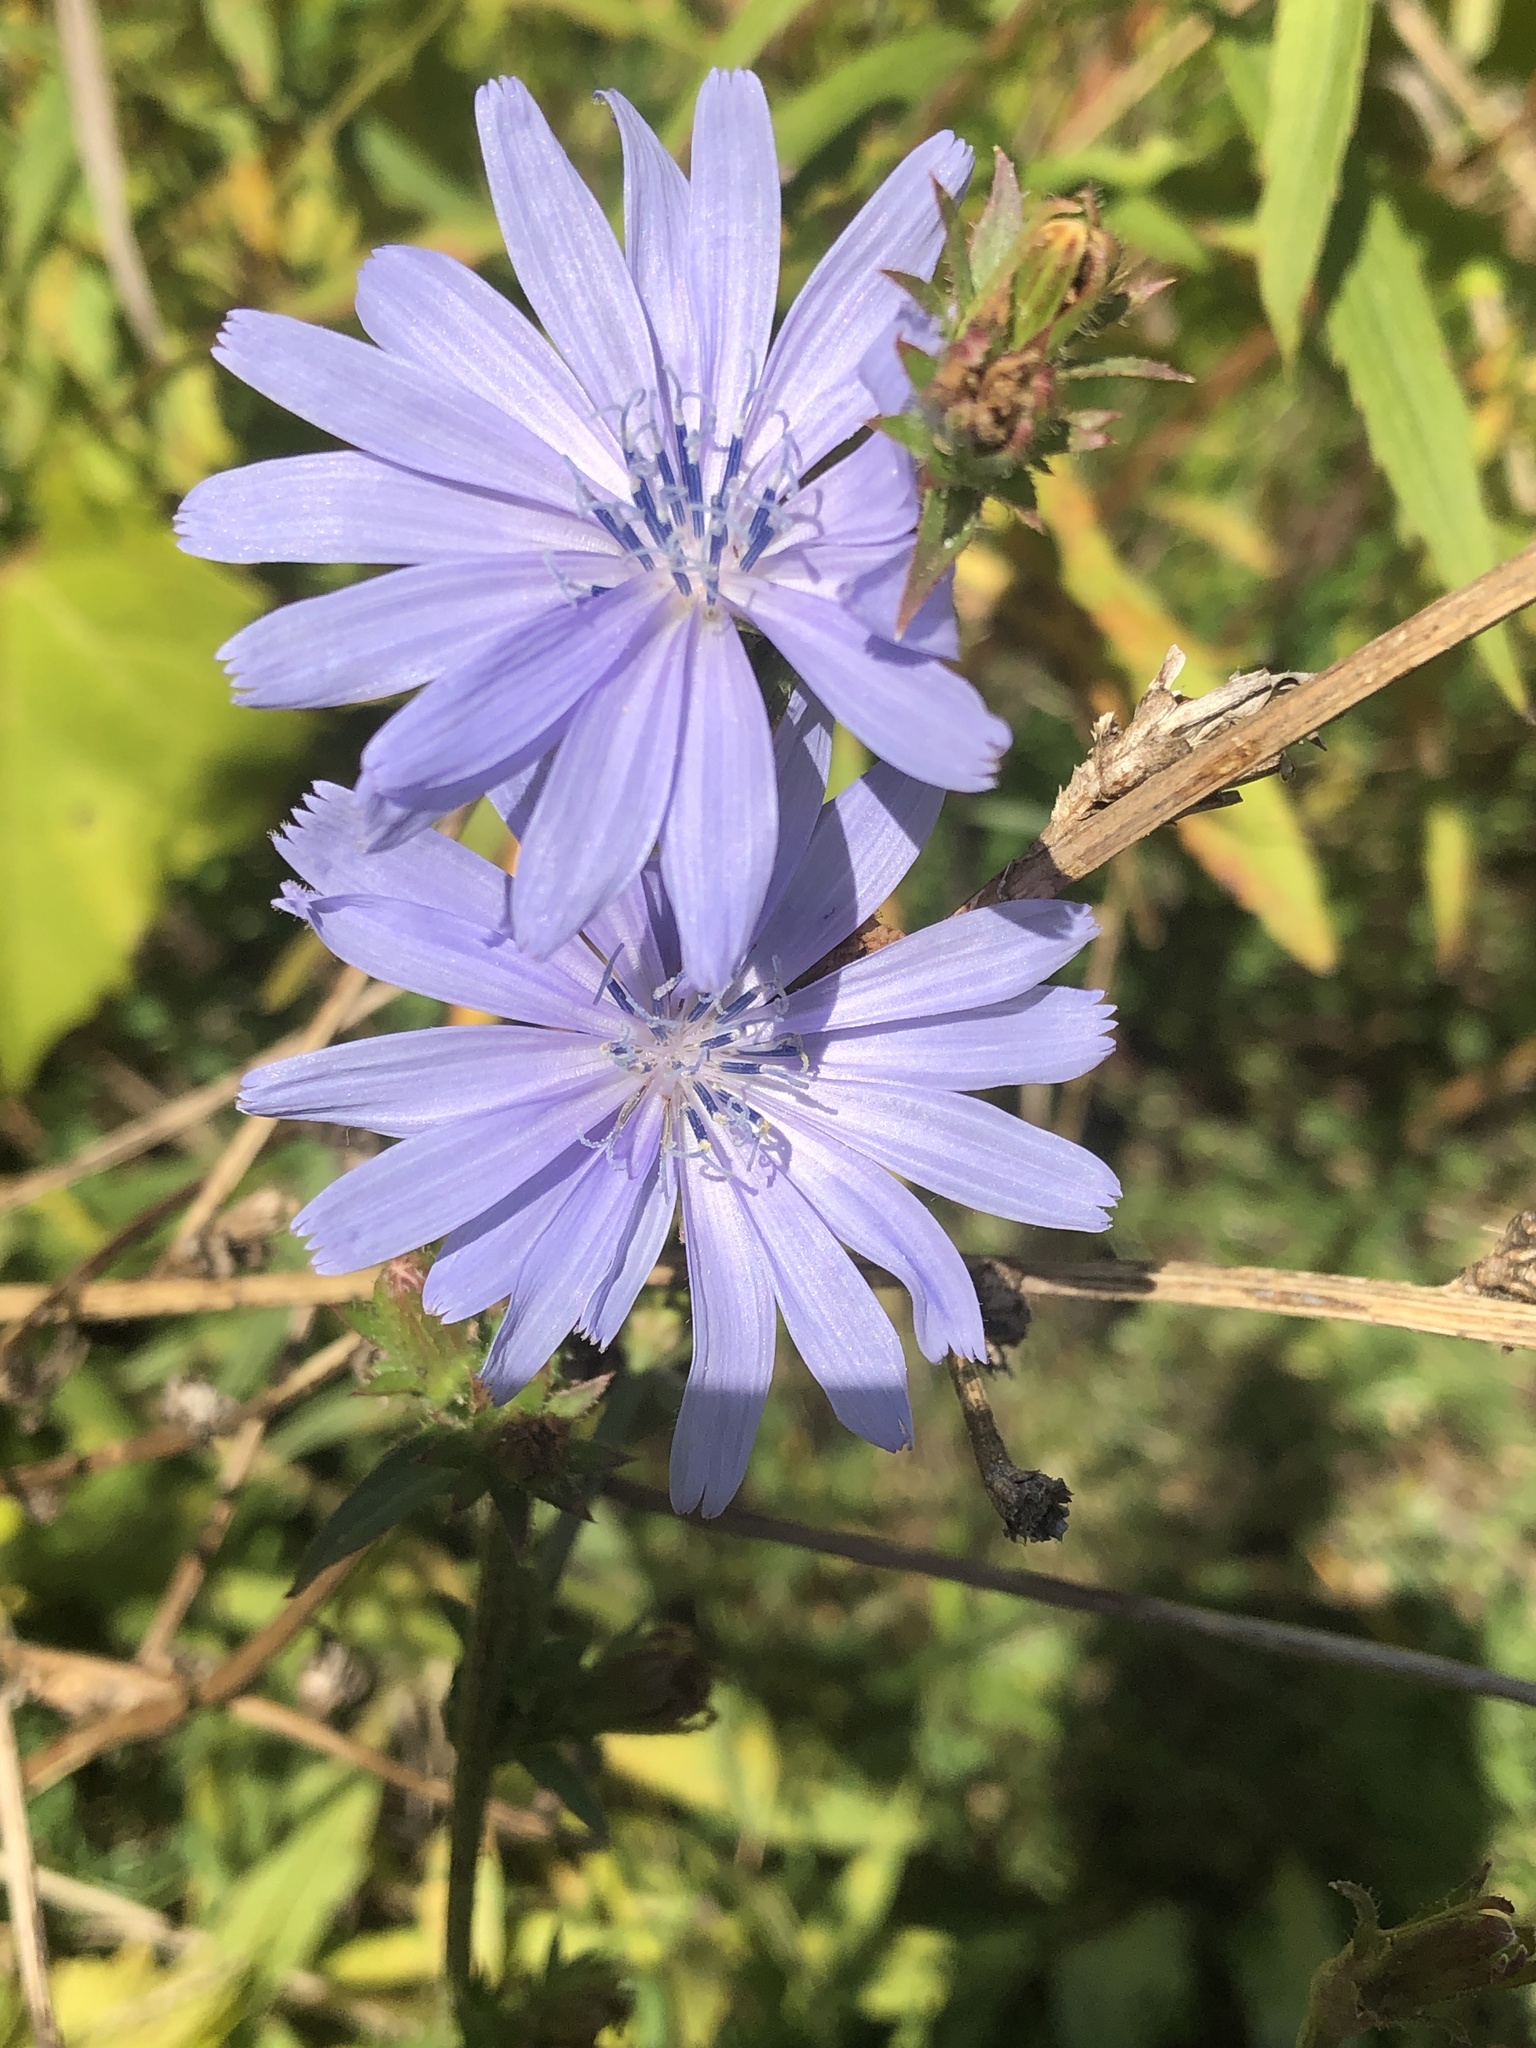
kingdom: Plantae
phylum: Tracheophyta
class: Magnoliopsida
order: Asterales
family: Asteraceae
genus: Cichorium
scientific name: Cichorium intybus
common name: Chicory
